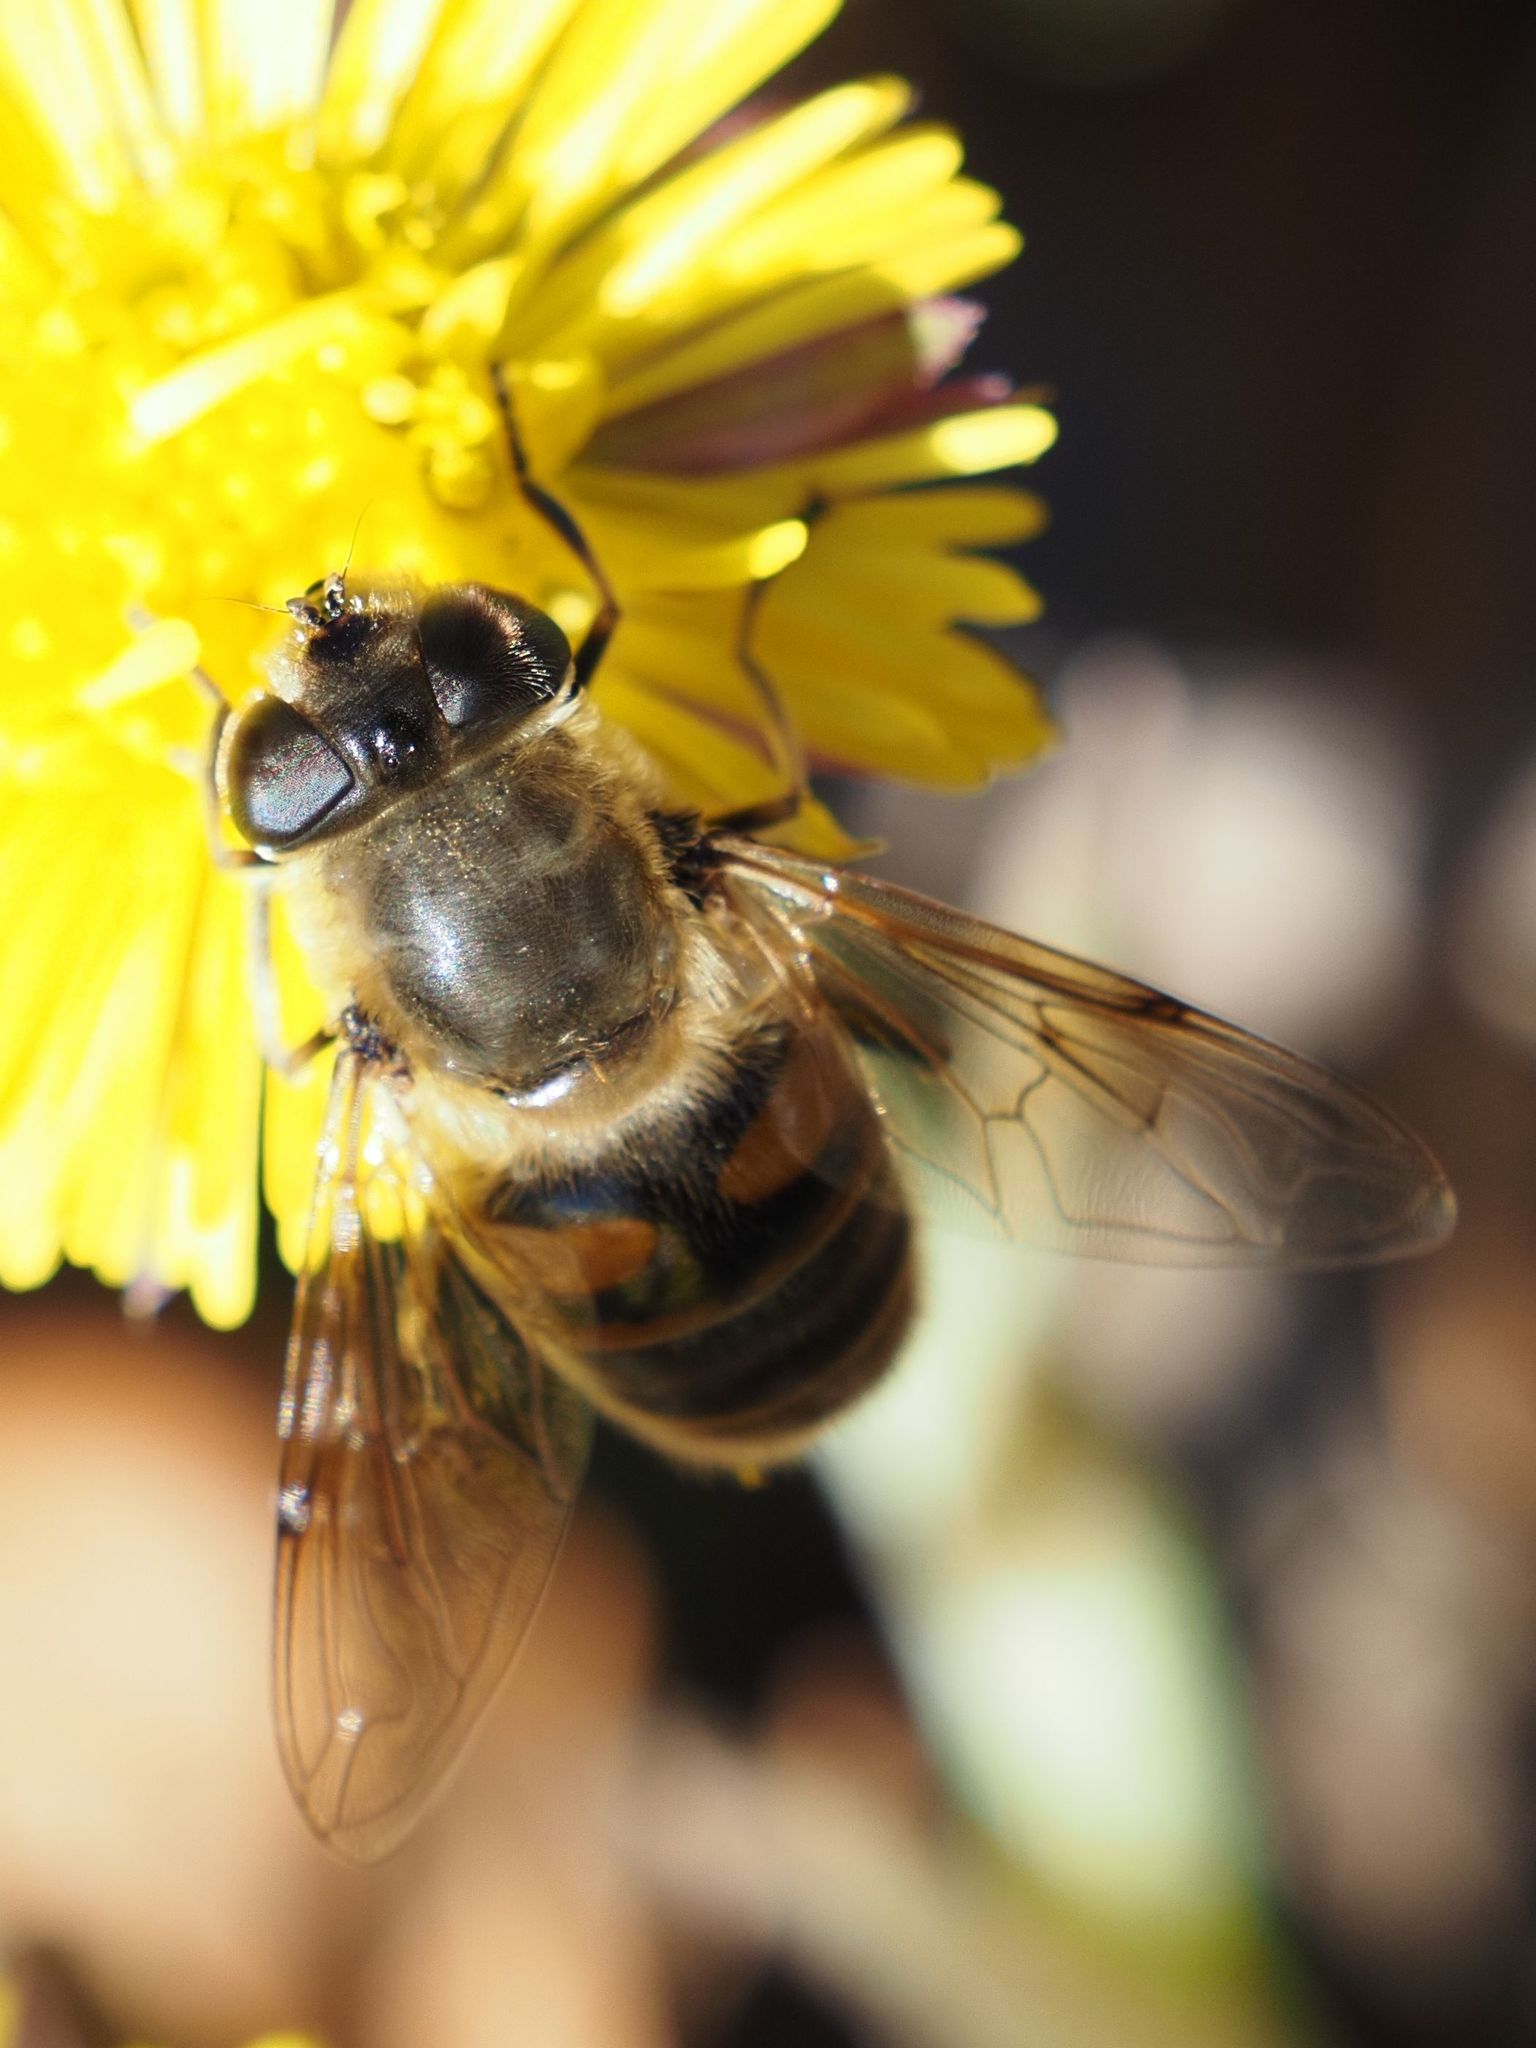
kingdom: Animalia
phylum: Arthropoda
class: Insecta
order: Diptera
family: Syrphidae
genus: Eristalis
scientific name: Eristalis tenax
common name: Drone fly
